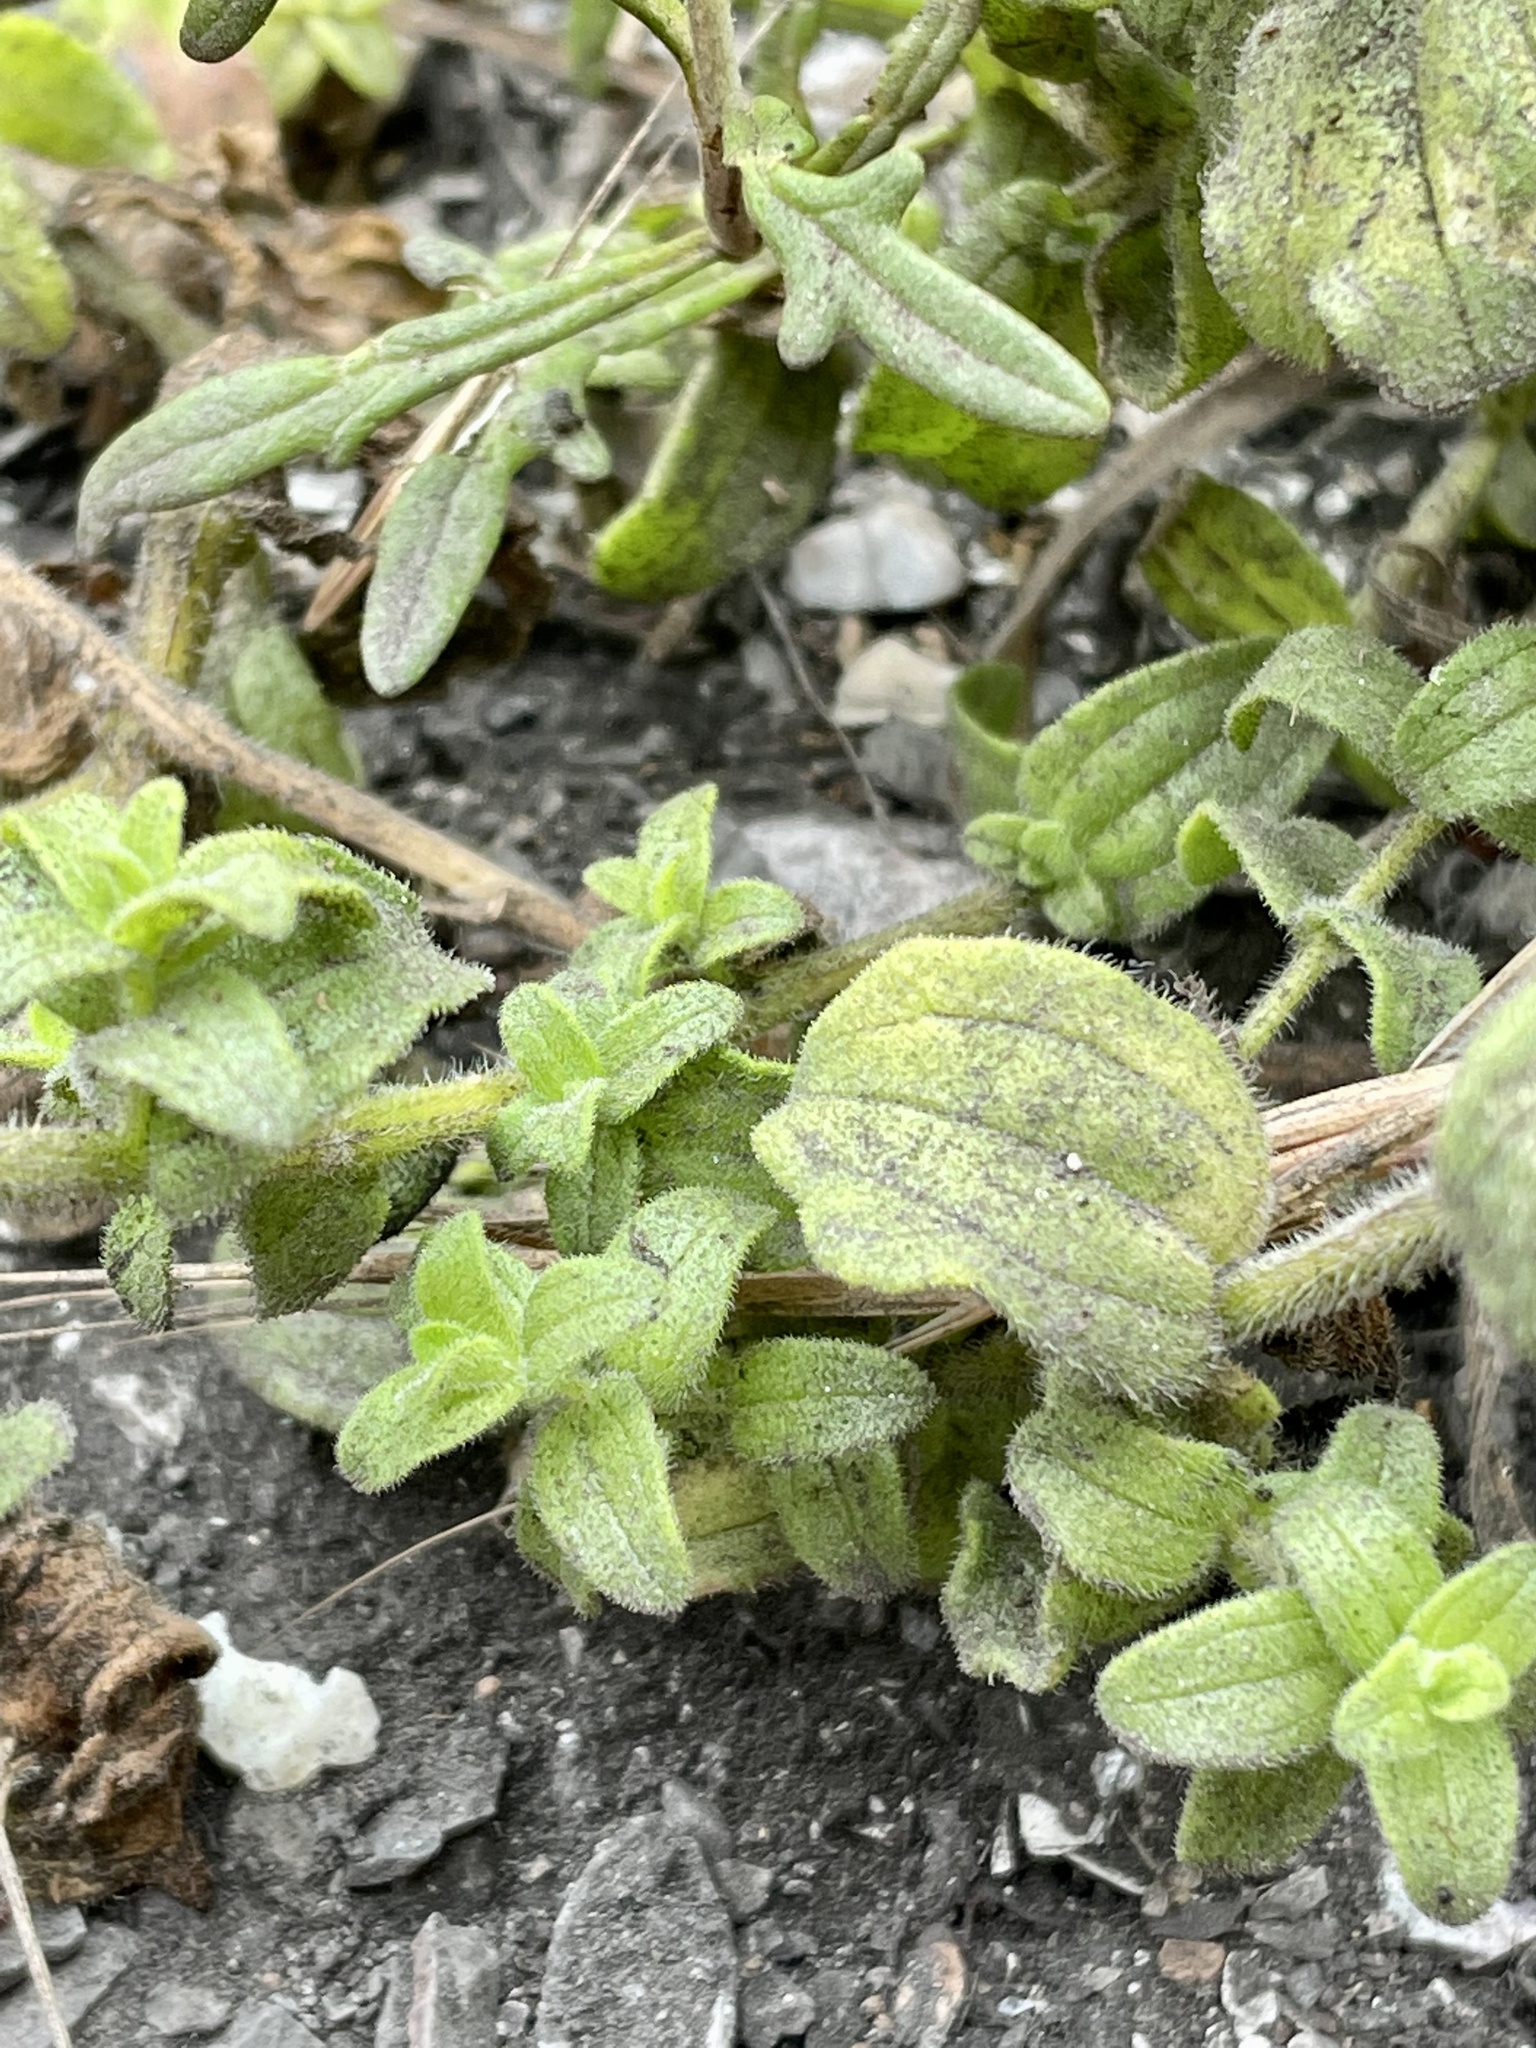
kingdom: Plantae
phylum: Tracheophyta
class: Magnoliopsida
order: Lamiales
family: Orobanchaceae
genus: Castilleja
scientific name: Castilleja latifolia
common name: Monterey indian paintbrush
